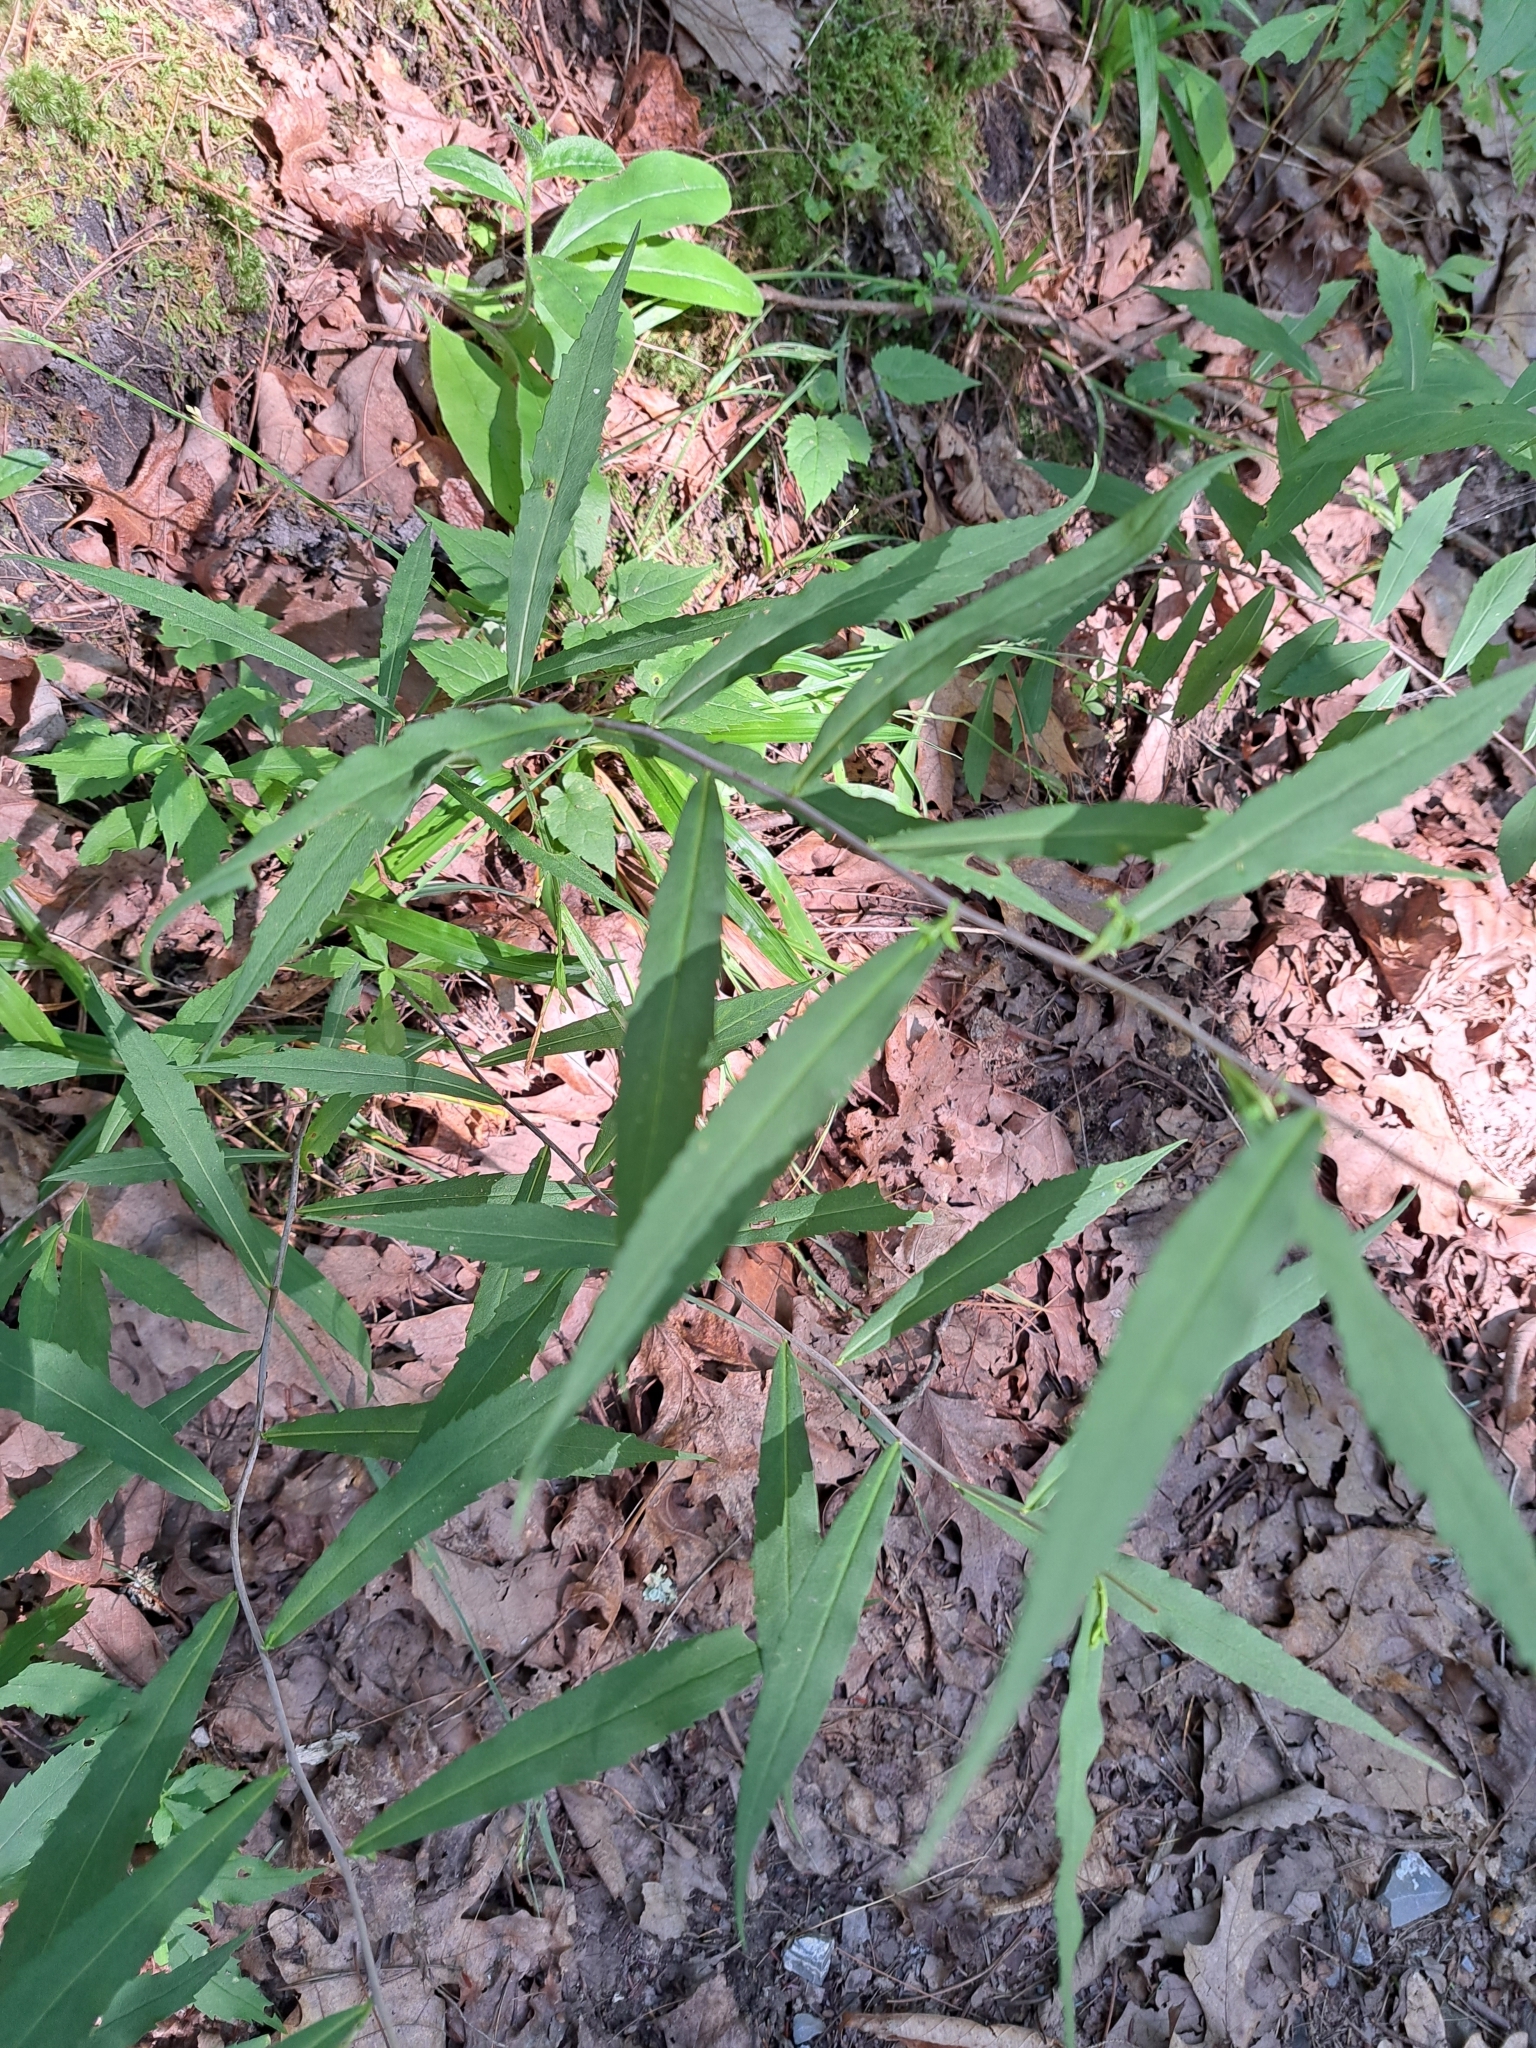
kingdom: Plantae
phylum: Tracheophyta
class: Magnoliopsida
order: Asterales
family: Asteraceae
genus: Solidago
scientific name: Solidago caesia
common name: Woodland goldenrod
